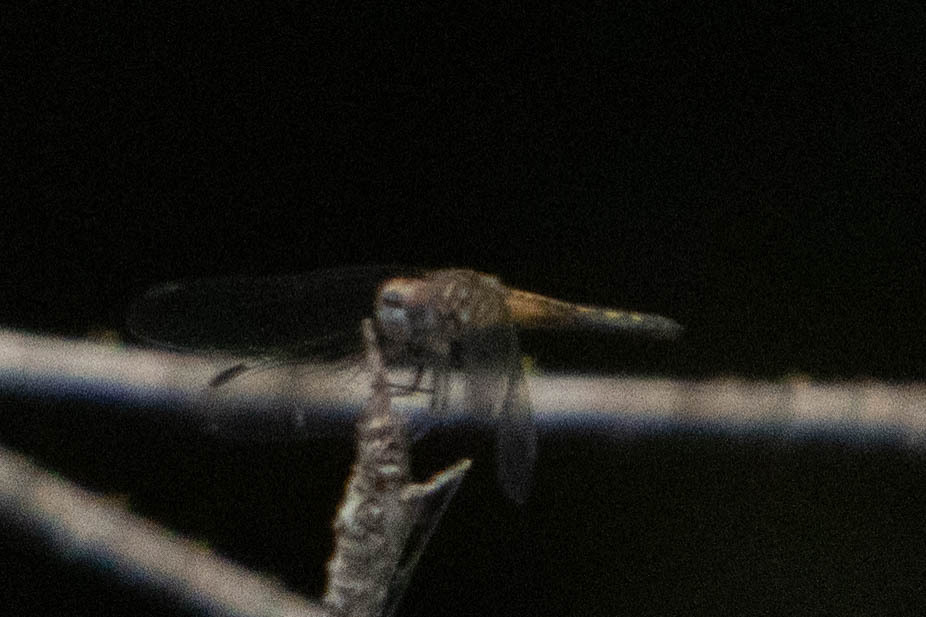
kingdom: Animalia
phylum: Arthropoda
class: Insecta
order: Odonata
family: Libellulidae
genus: Pachydiplax
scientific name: Pachydiplax longipennis
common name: Blue dasher
